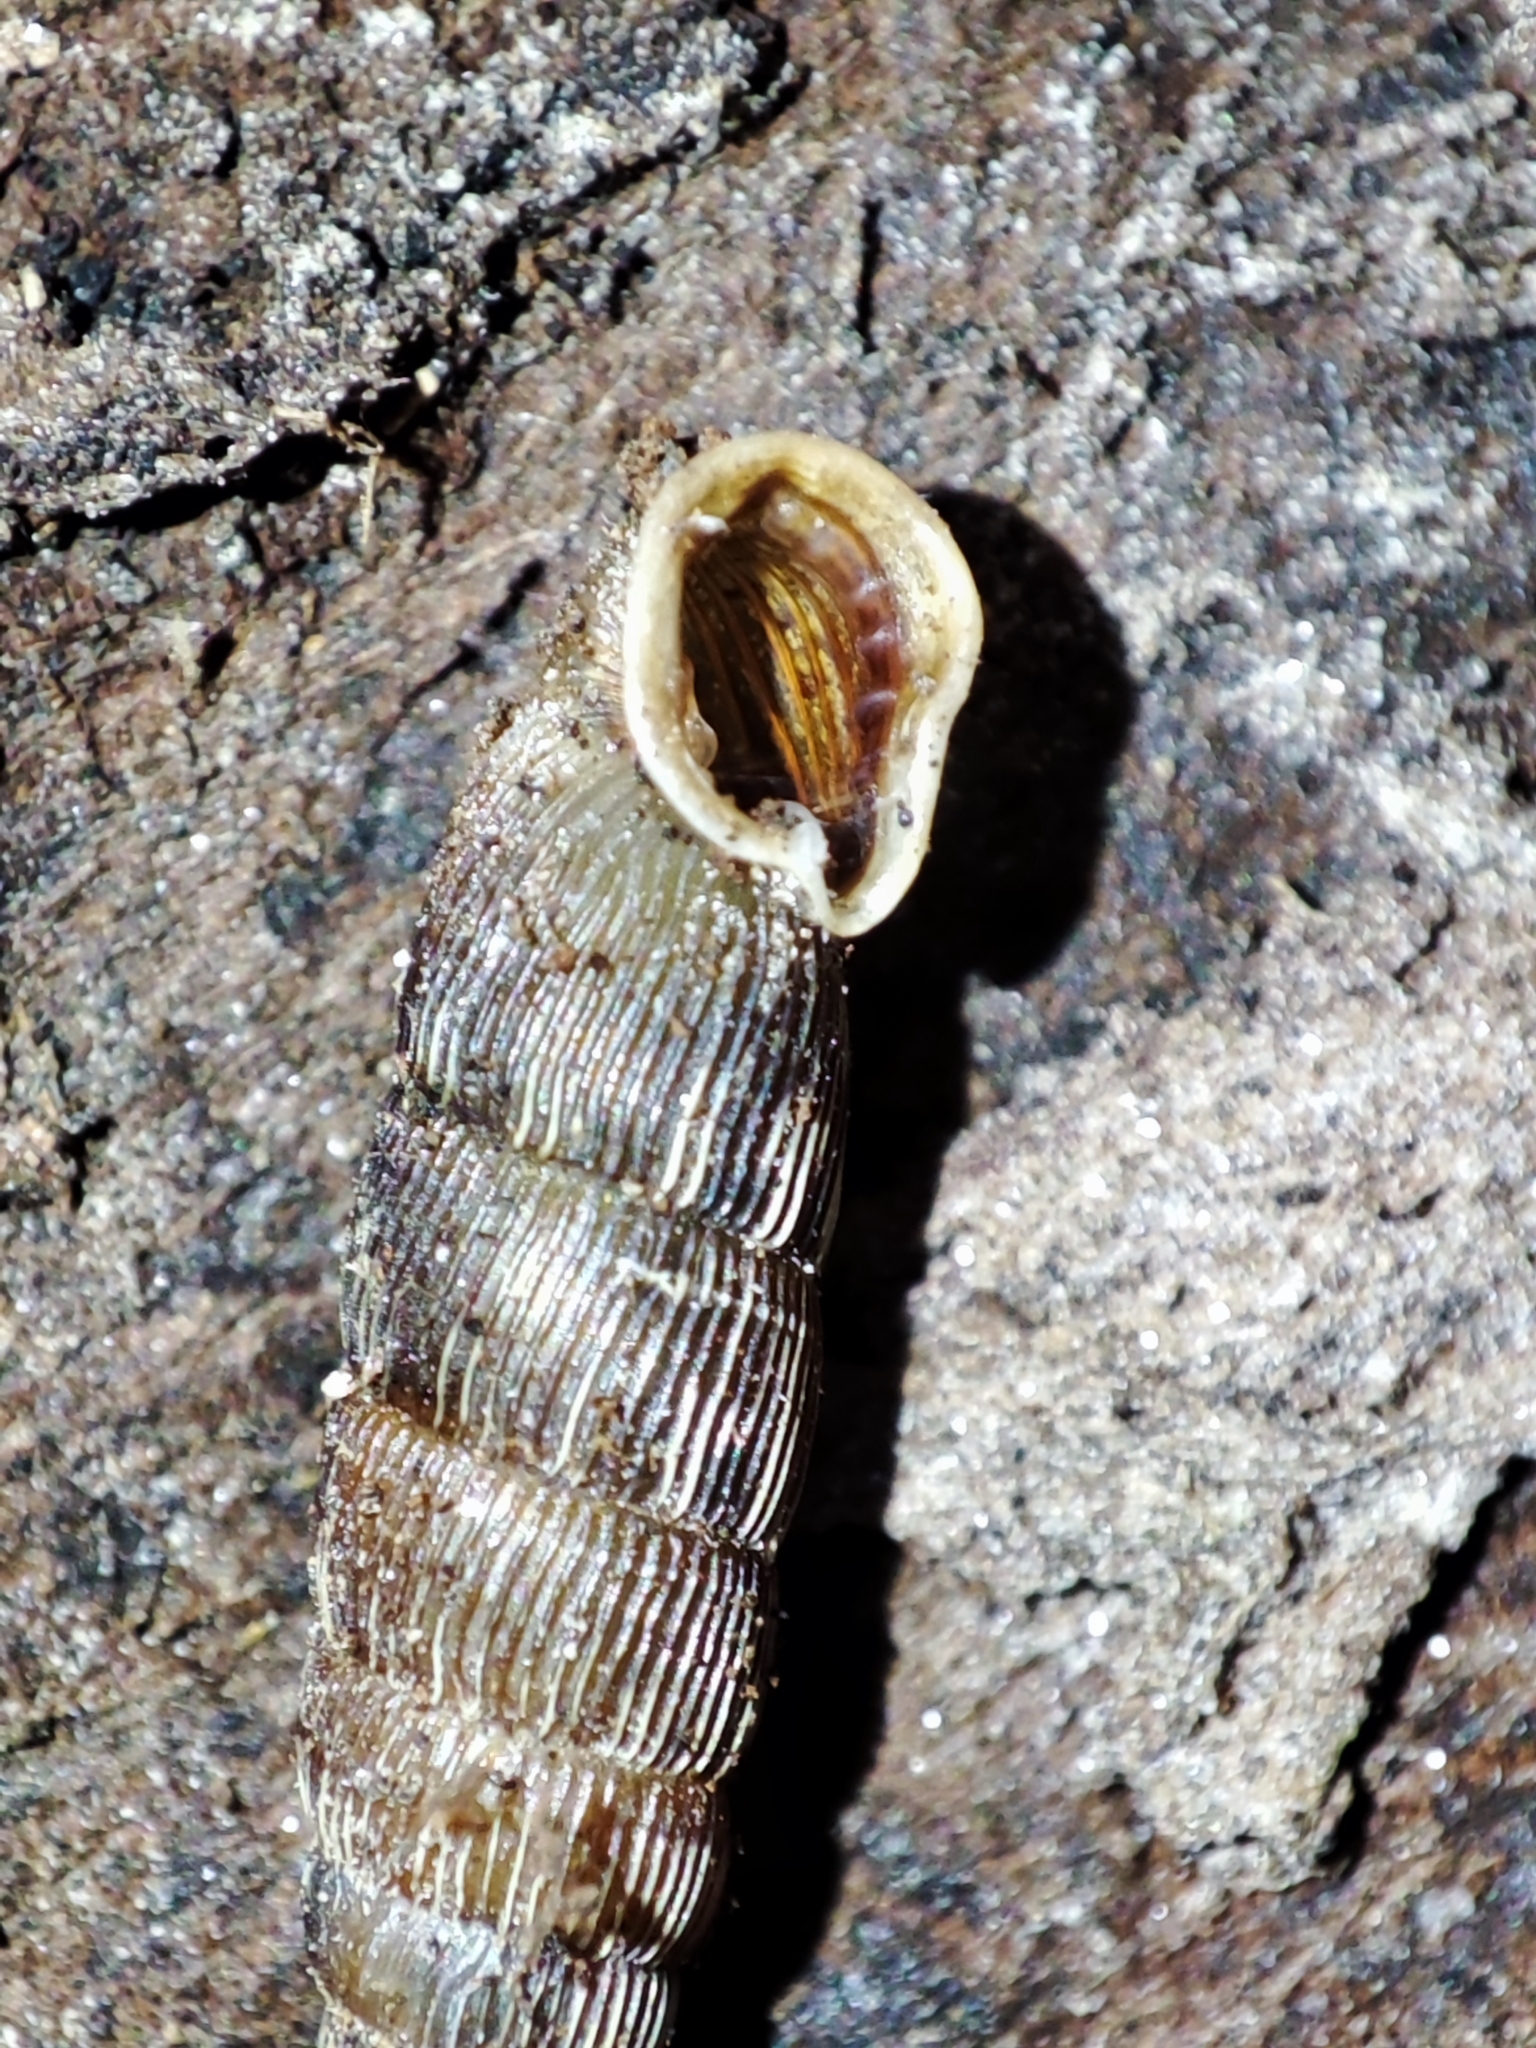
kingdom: Animalia
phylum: Mollusca
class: Gastropoda
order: Stylommatophora
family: Clausiliidae
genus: Laciniaria
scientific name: Laciniaria plicata
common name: Single-lipped door snail
